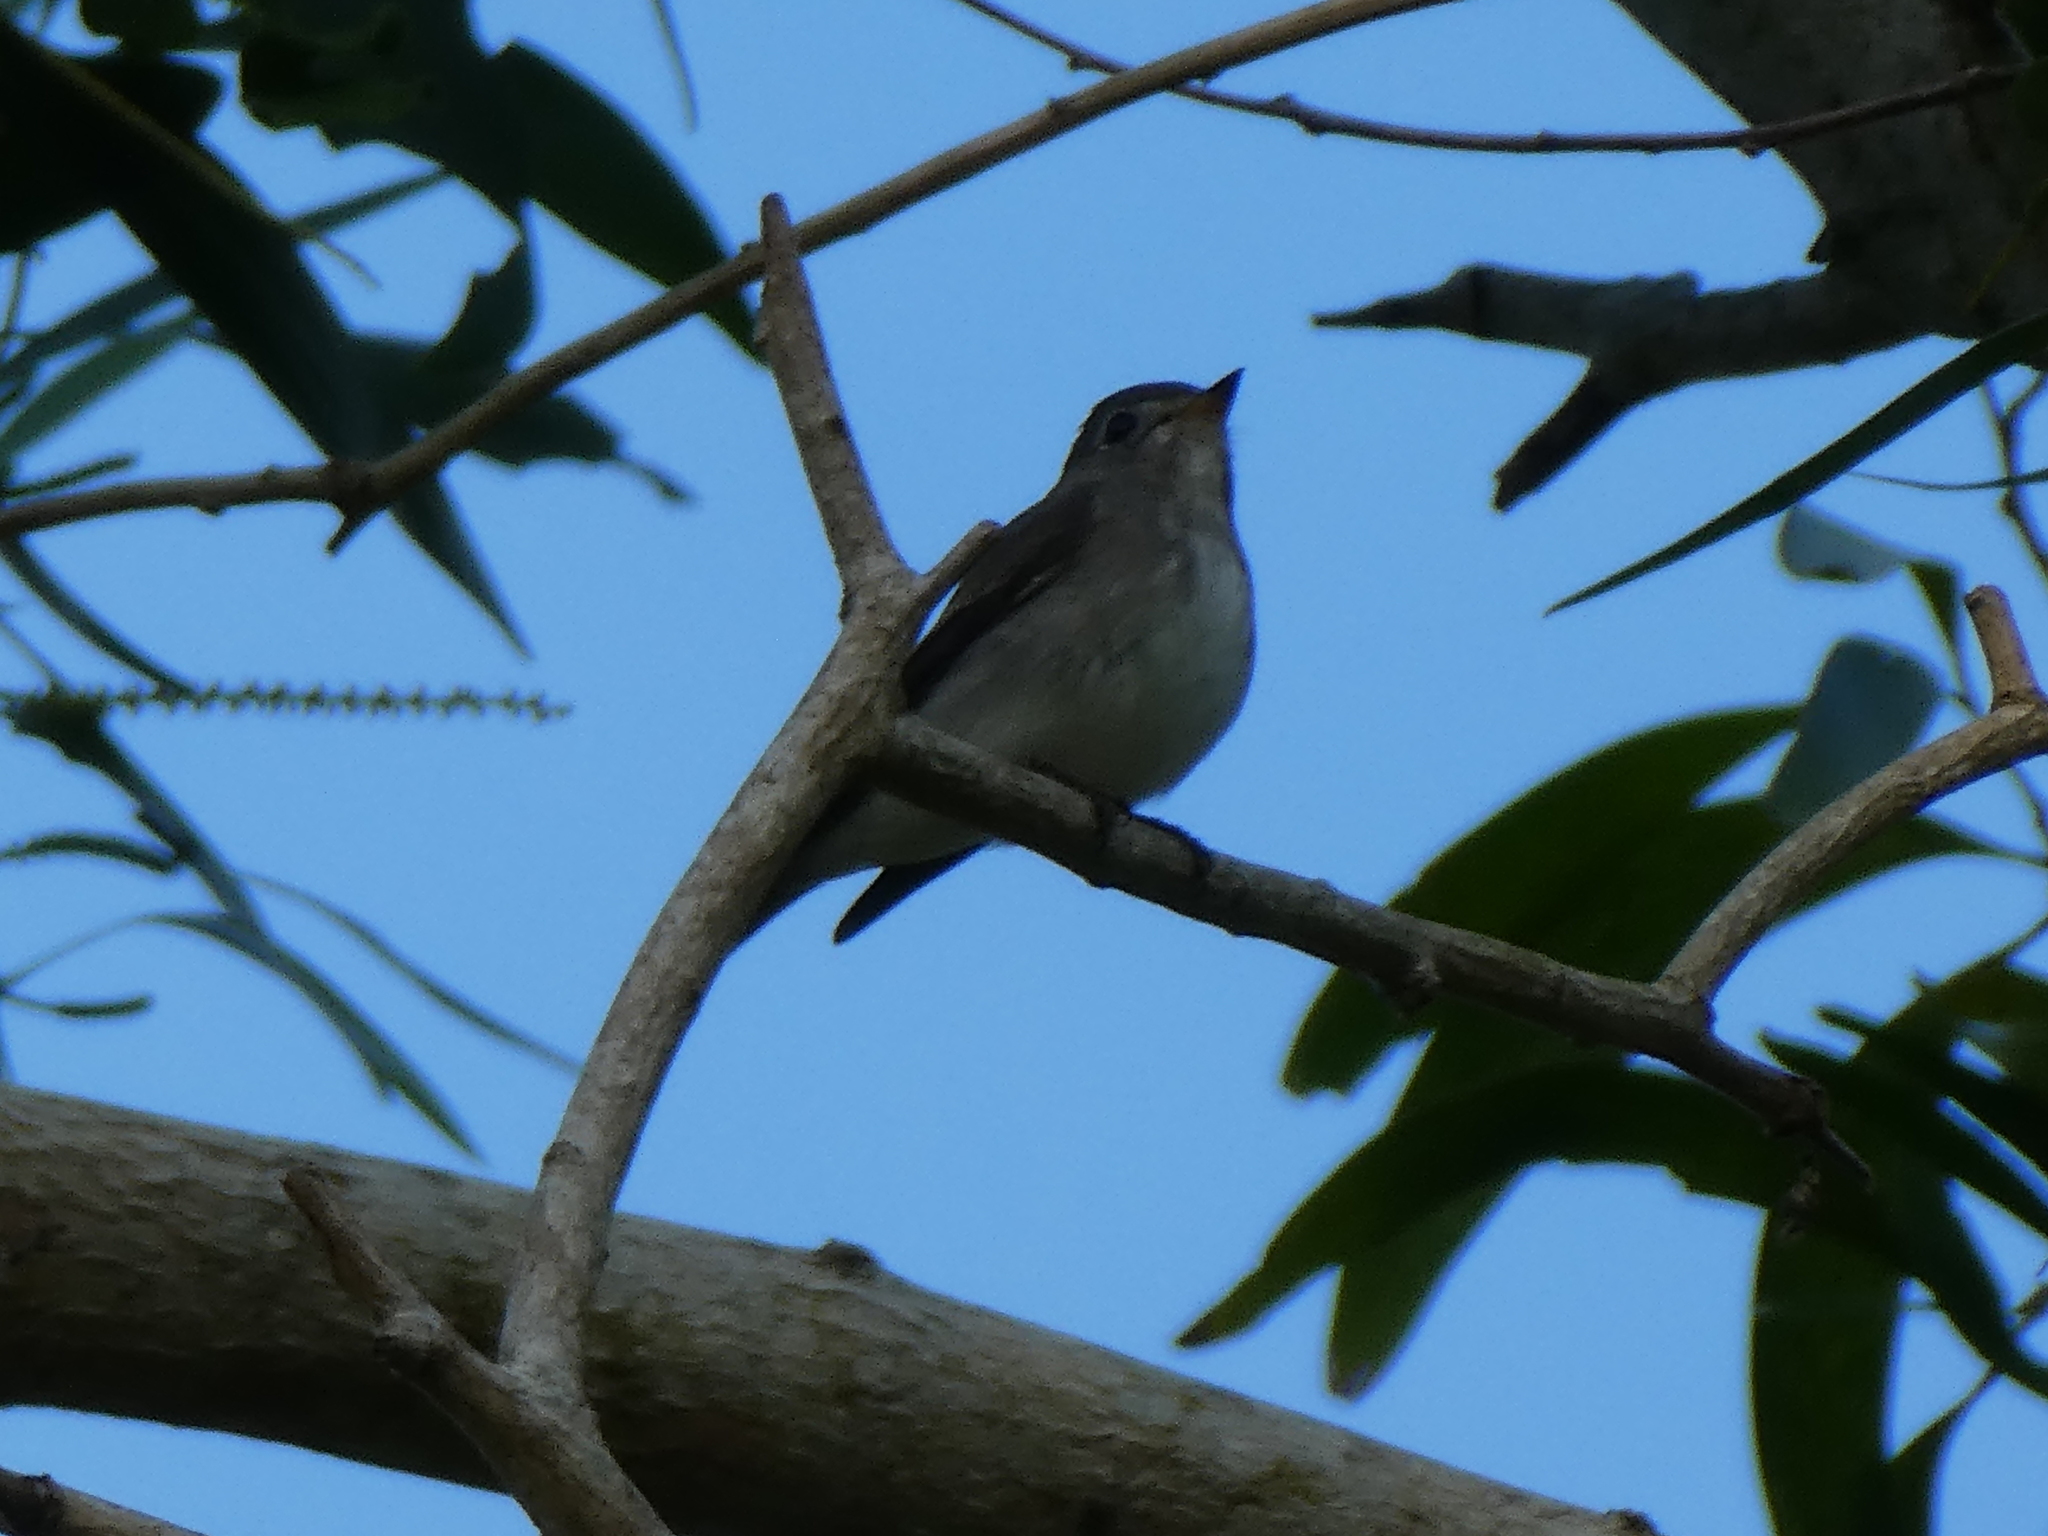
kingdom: Animalia
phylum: Chordata
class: Aves
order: Passeriformes
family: Muscicapidae
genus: Muscicapa
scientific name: Muscicapa latirostris
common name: Asian brown flycatcher
